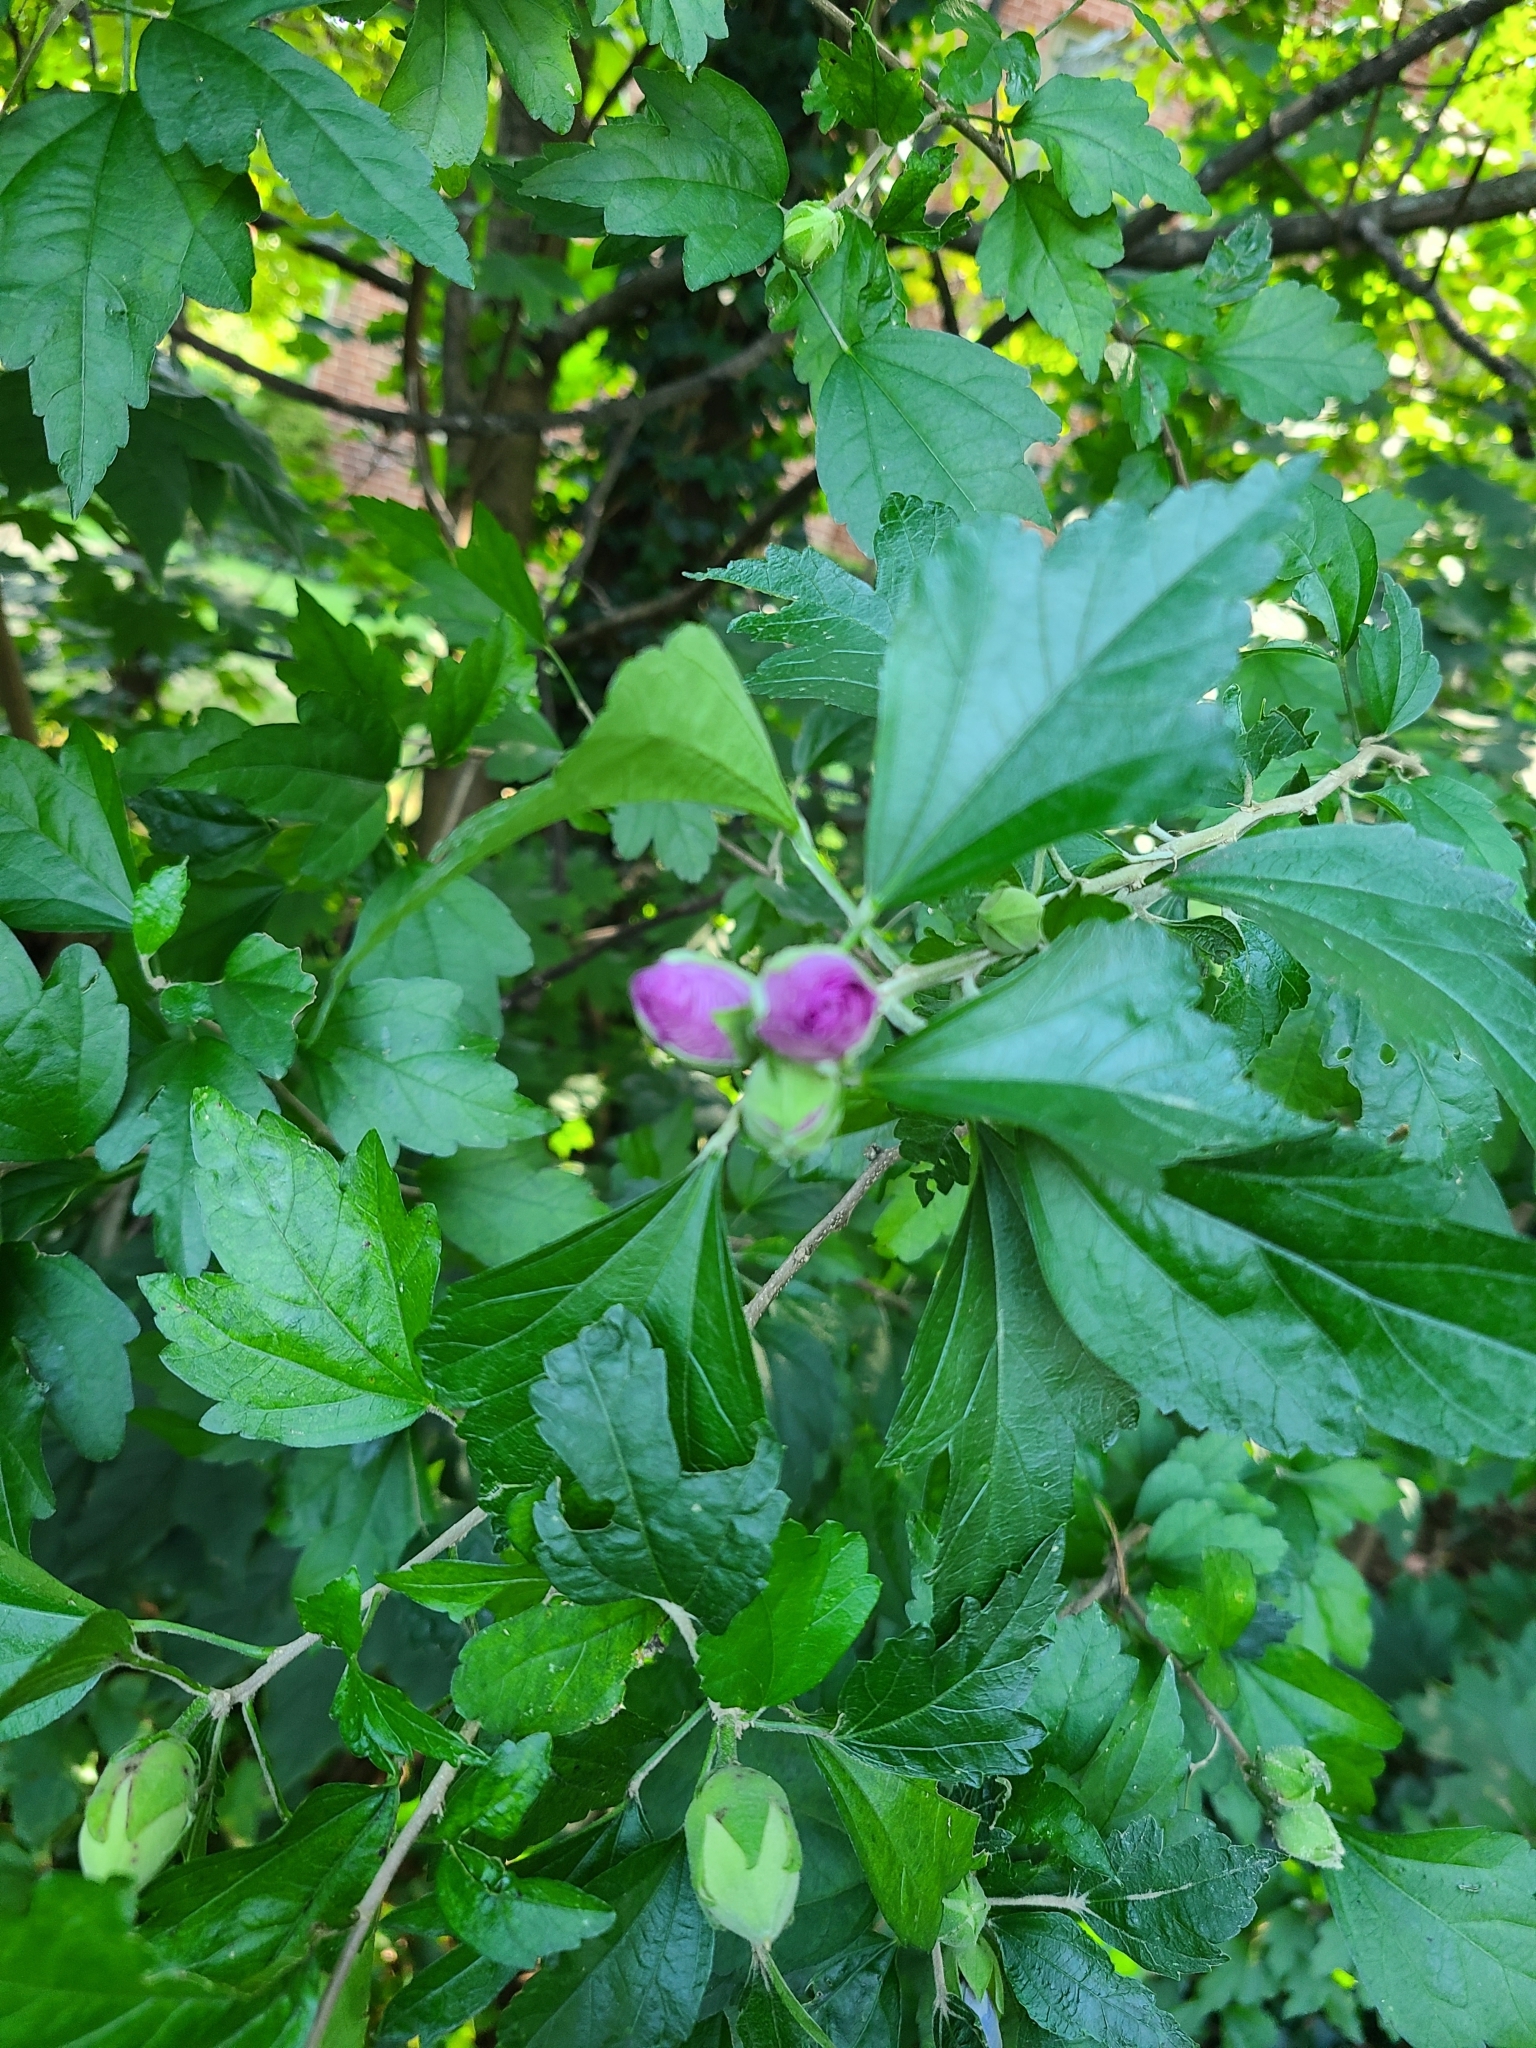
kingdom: Plantae
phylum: Tracheophyta
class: Magnoliopsida
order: Malvales
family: Malvaceae
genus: Hibiscus
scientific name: Hibiscus syriacus
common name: Syrian ketmia
